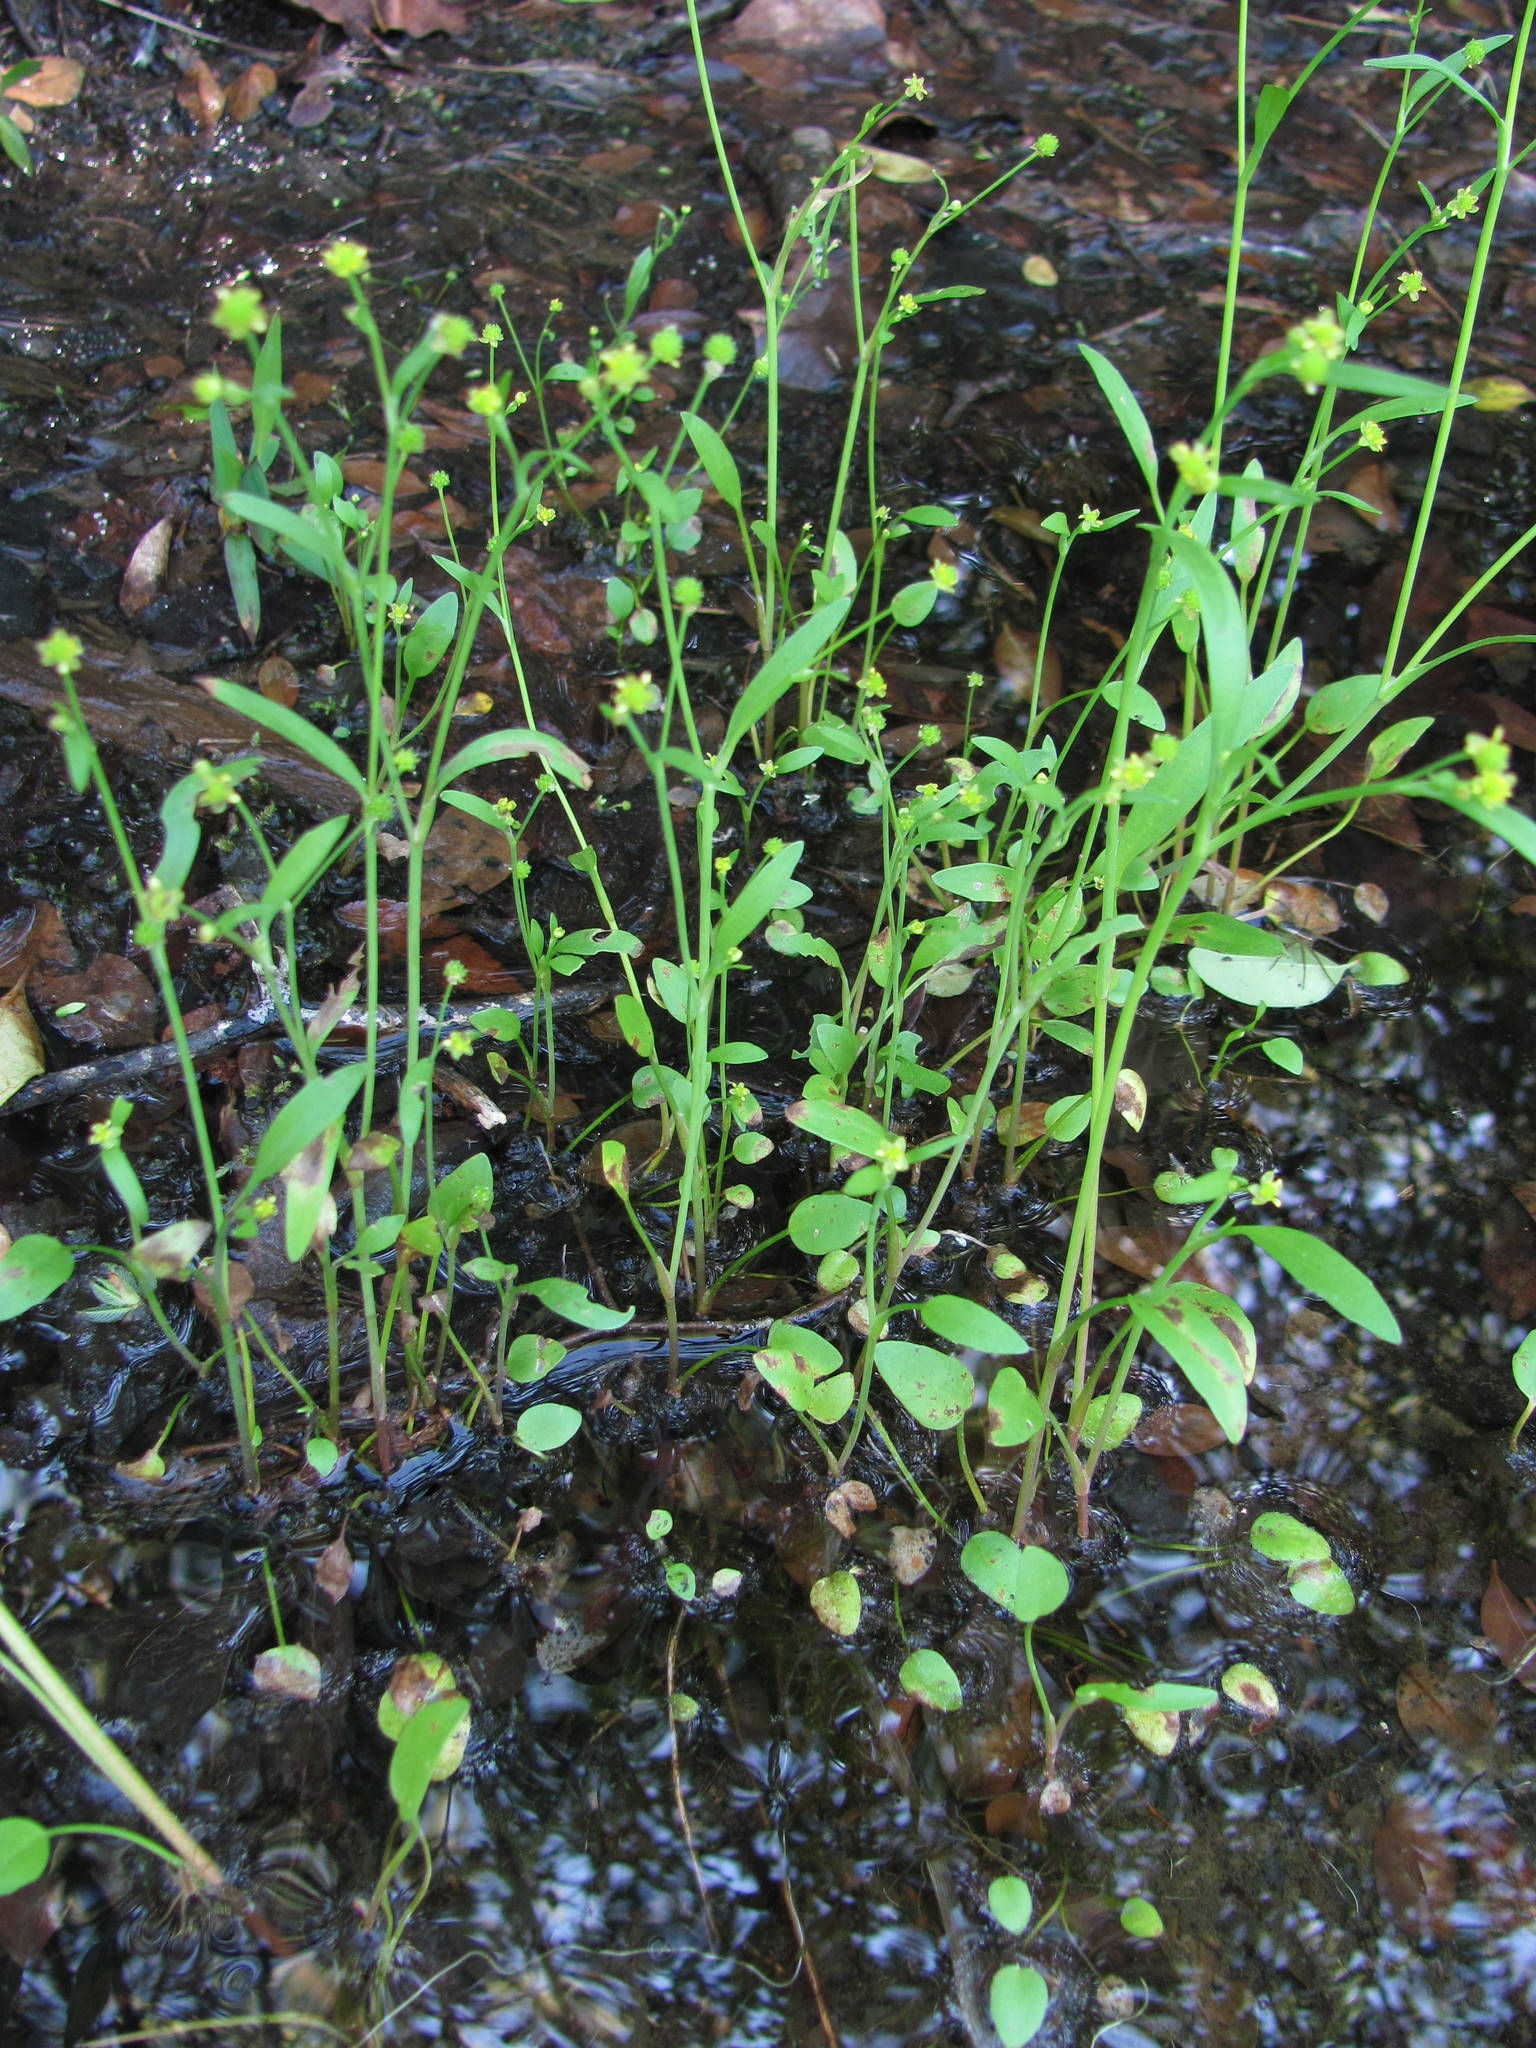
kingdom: Plantae
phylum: Tracheophyta
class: Magnoliopsida
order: Ranunculales
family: Ranunculaceae
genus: Ranunculus
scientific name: Ranunculus pusillus
